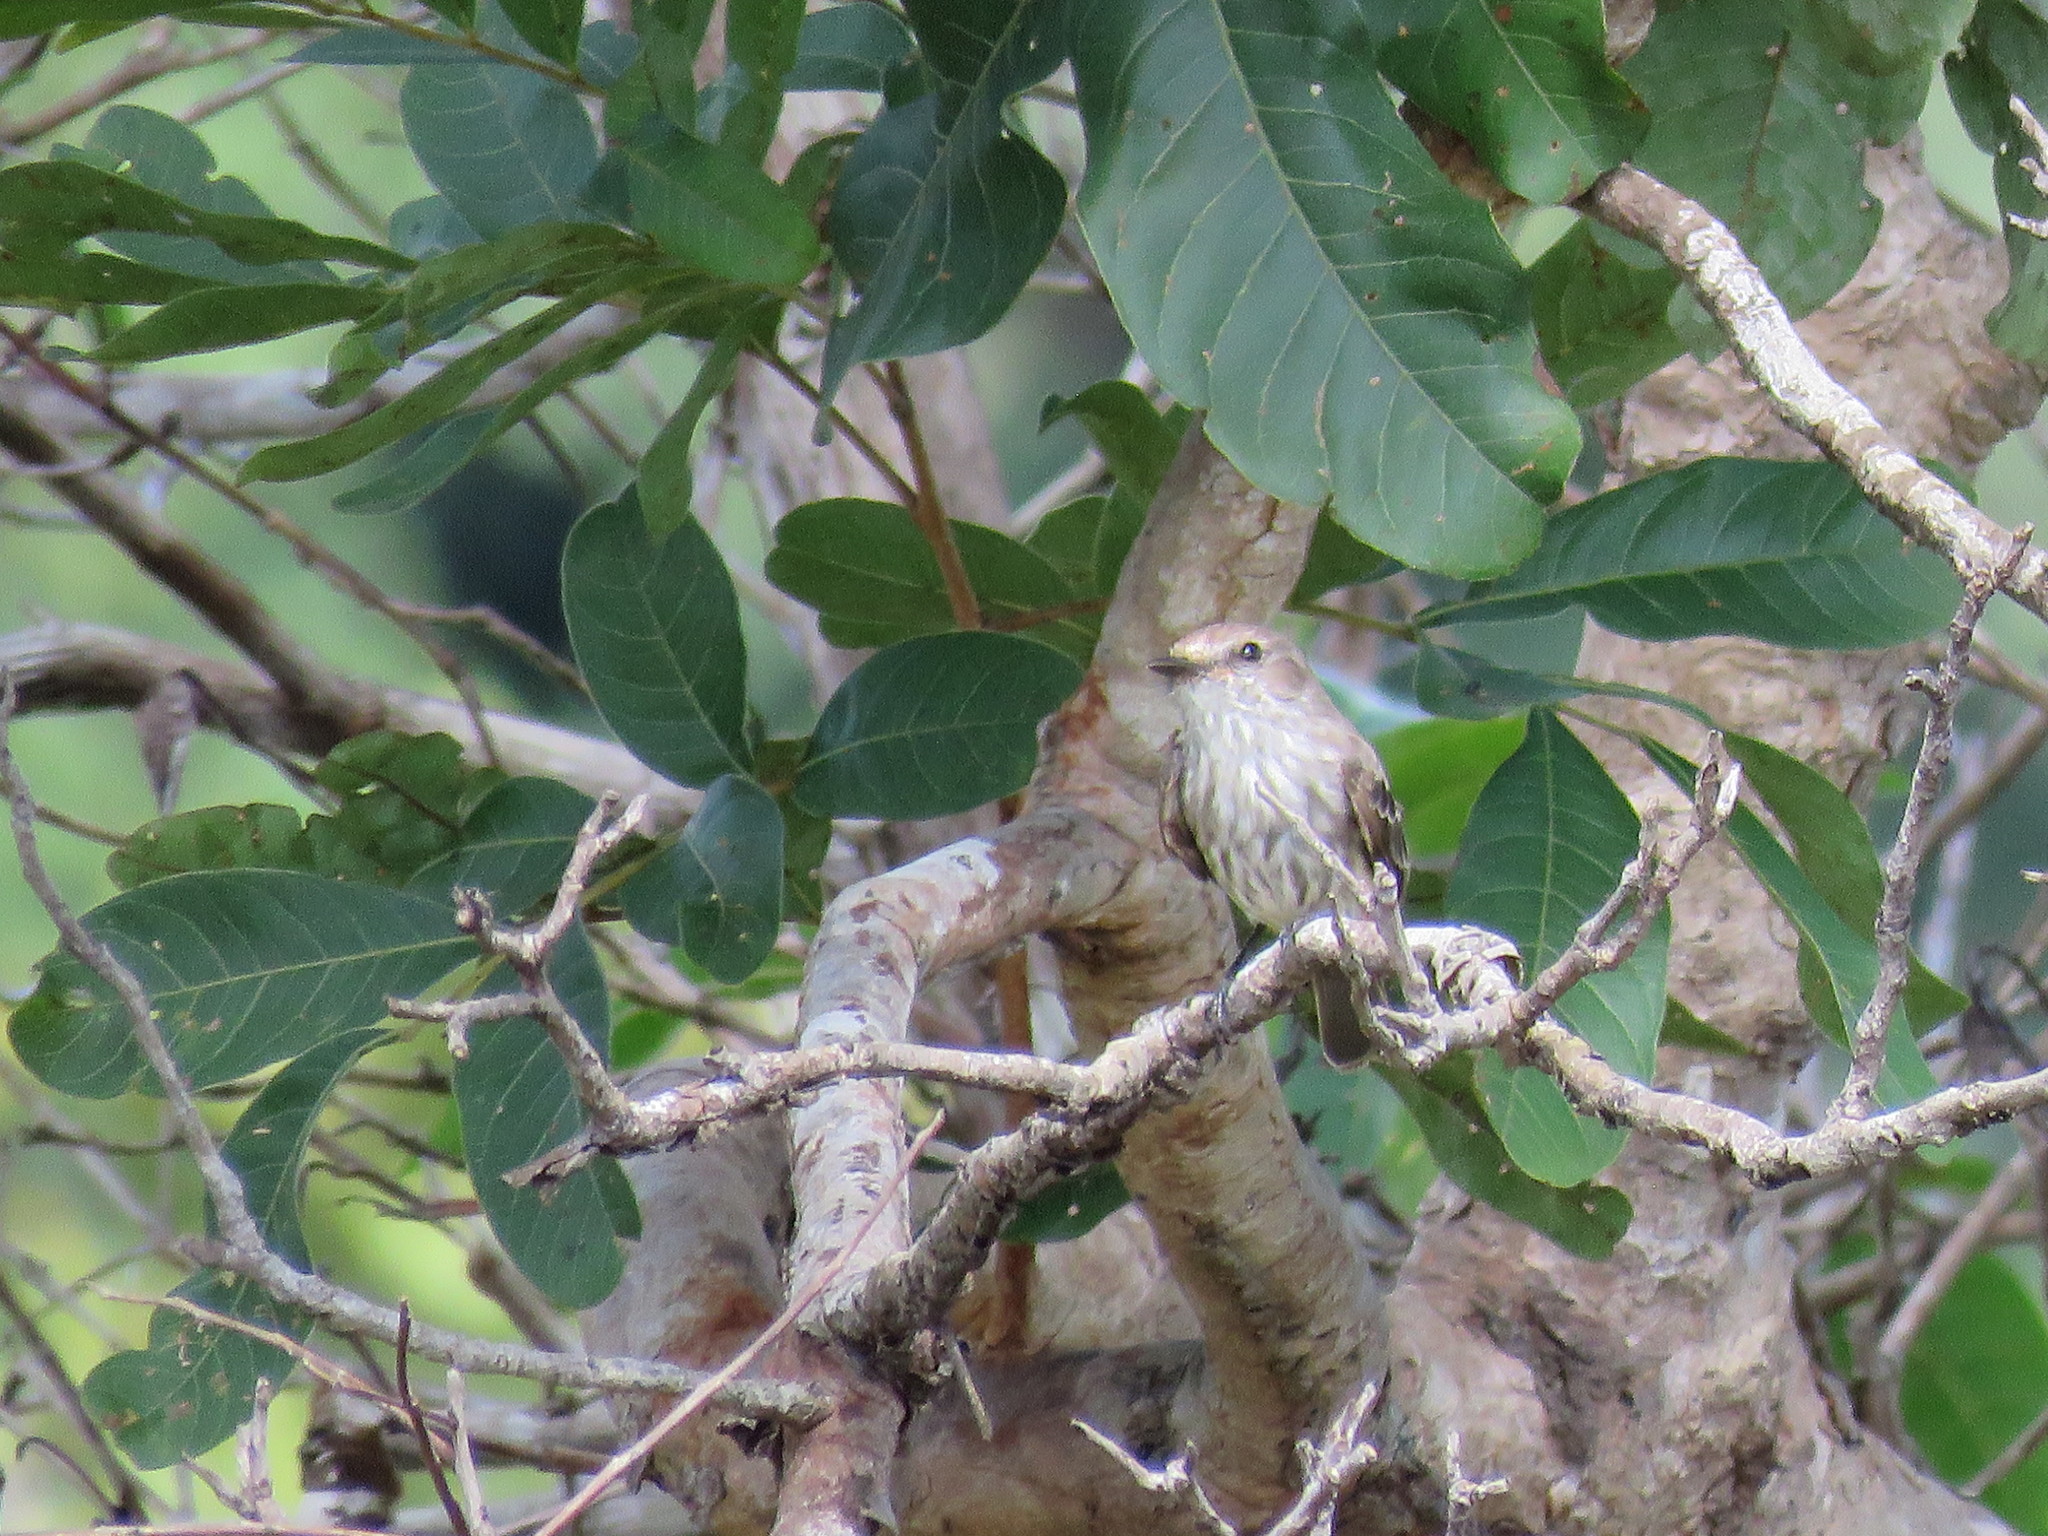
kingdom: Animalia
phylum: Chordata
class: Aves
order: Passeriformes
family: Tyrannidae
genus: Pyrocephalus
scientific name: Pyrocephalus rubinus
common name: Vermilion flycatcher
